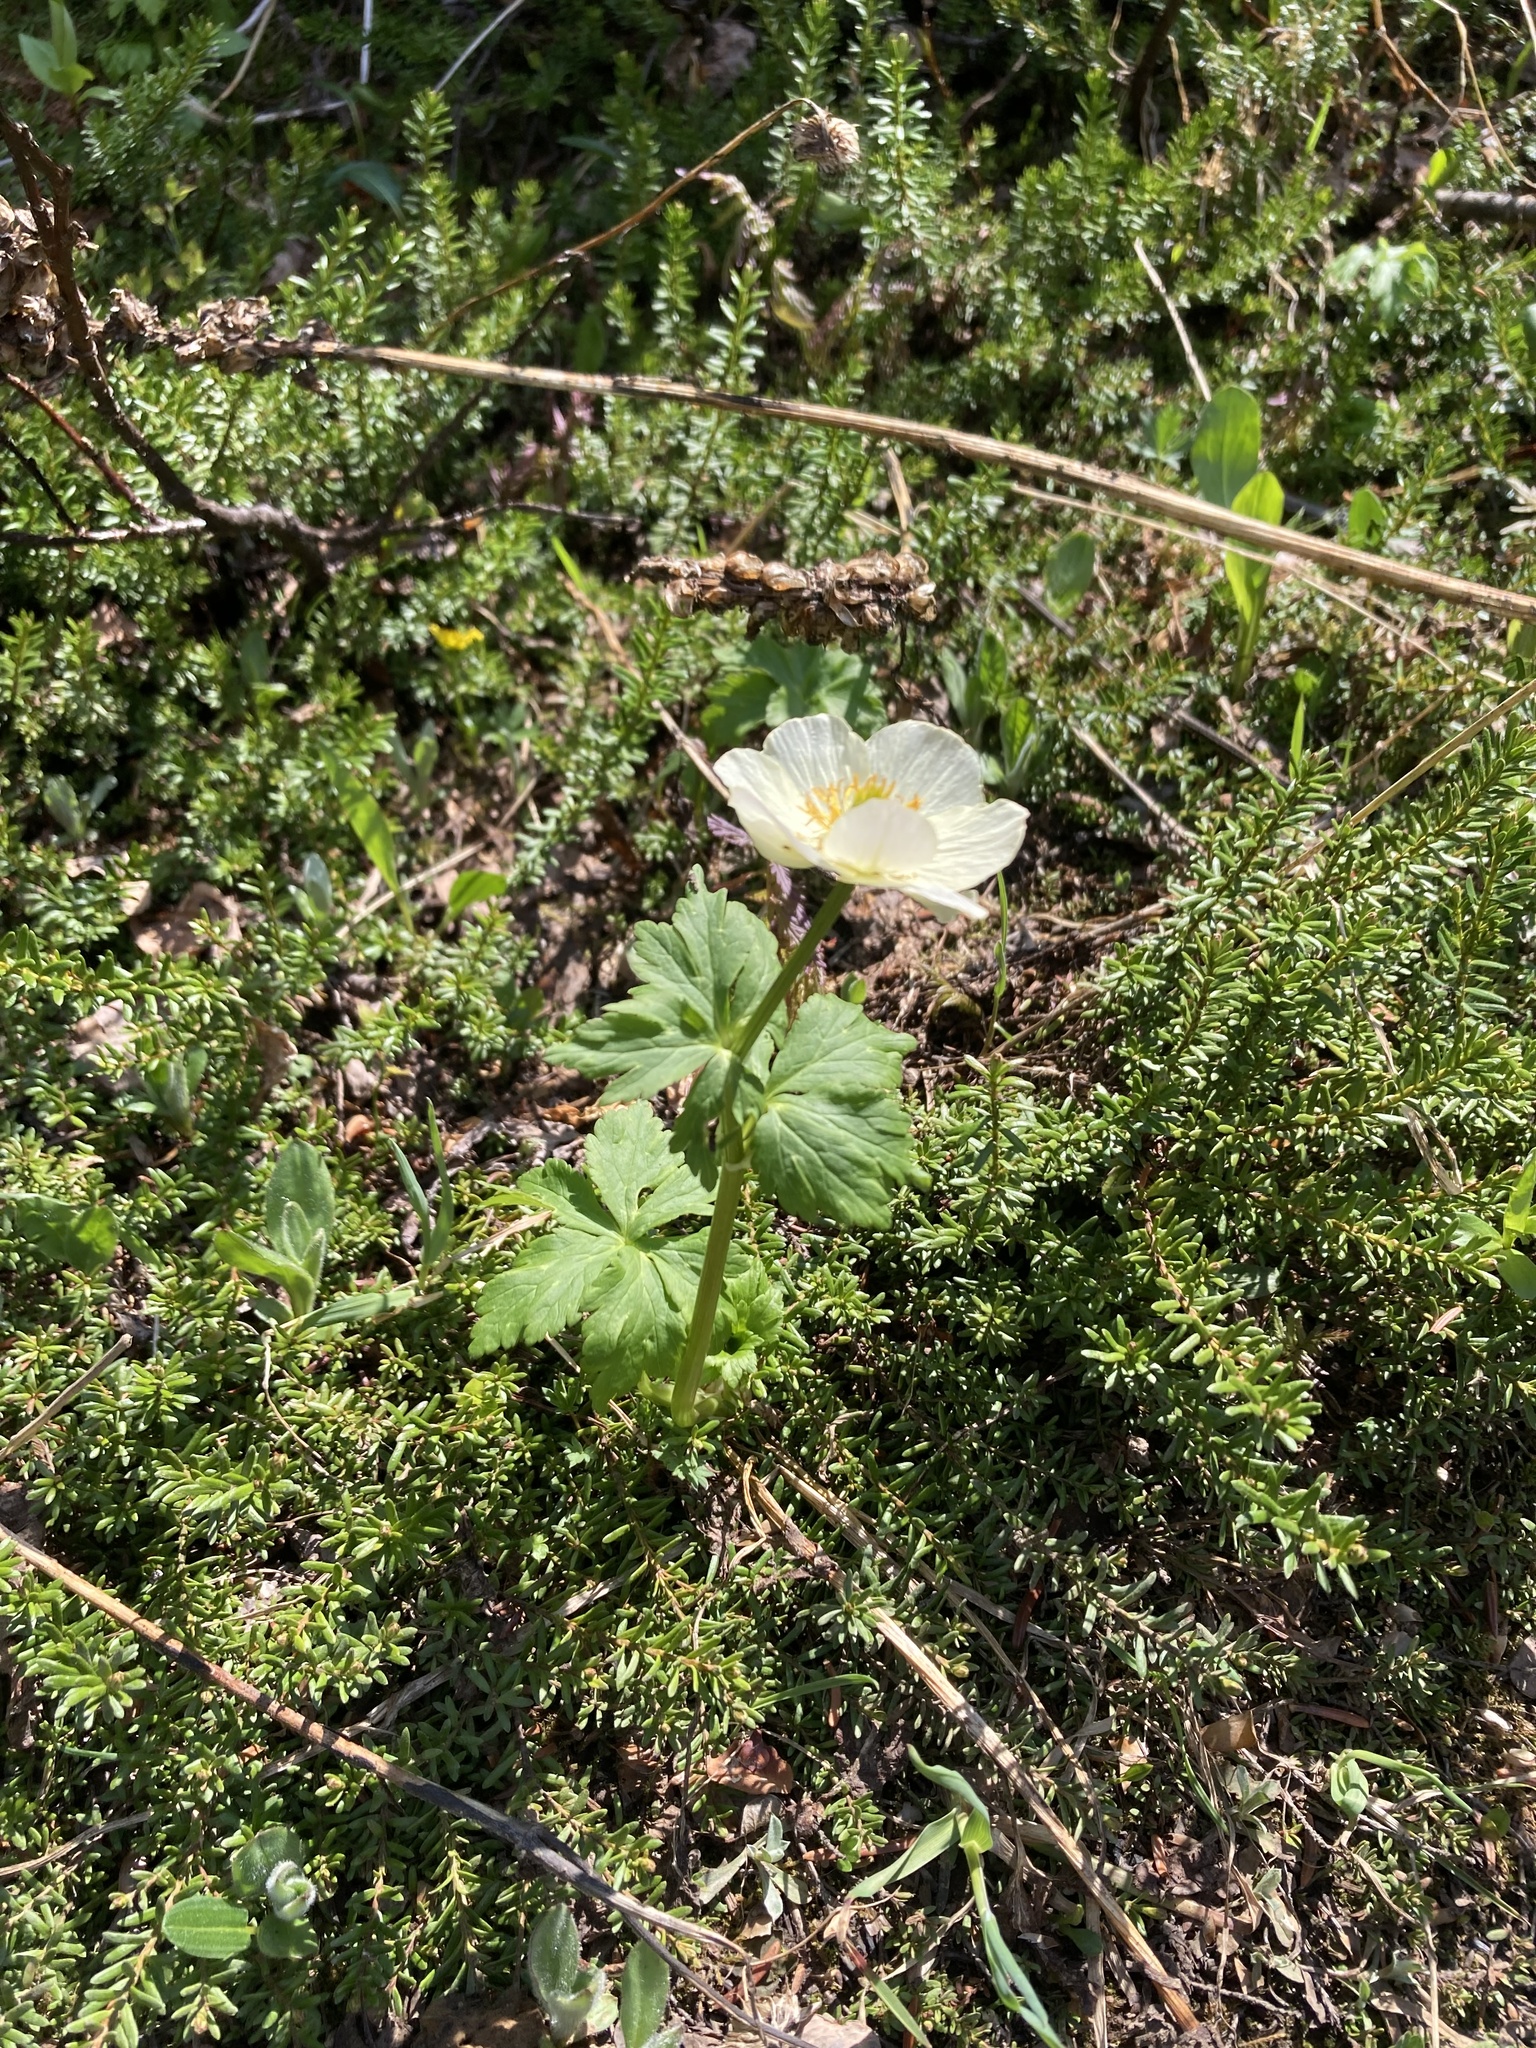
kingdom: Plantae
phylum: Tracheophyta
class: Magnoliopsida
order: Ranunculales
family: Ranunculaceae
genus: Trollius
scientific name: Trollius laxus
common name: American globeflower
